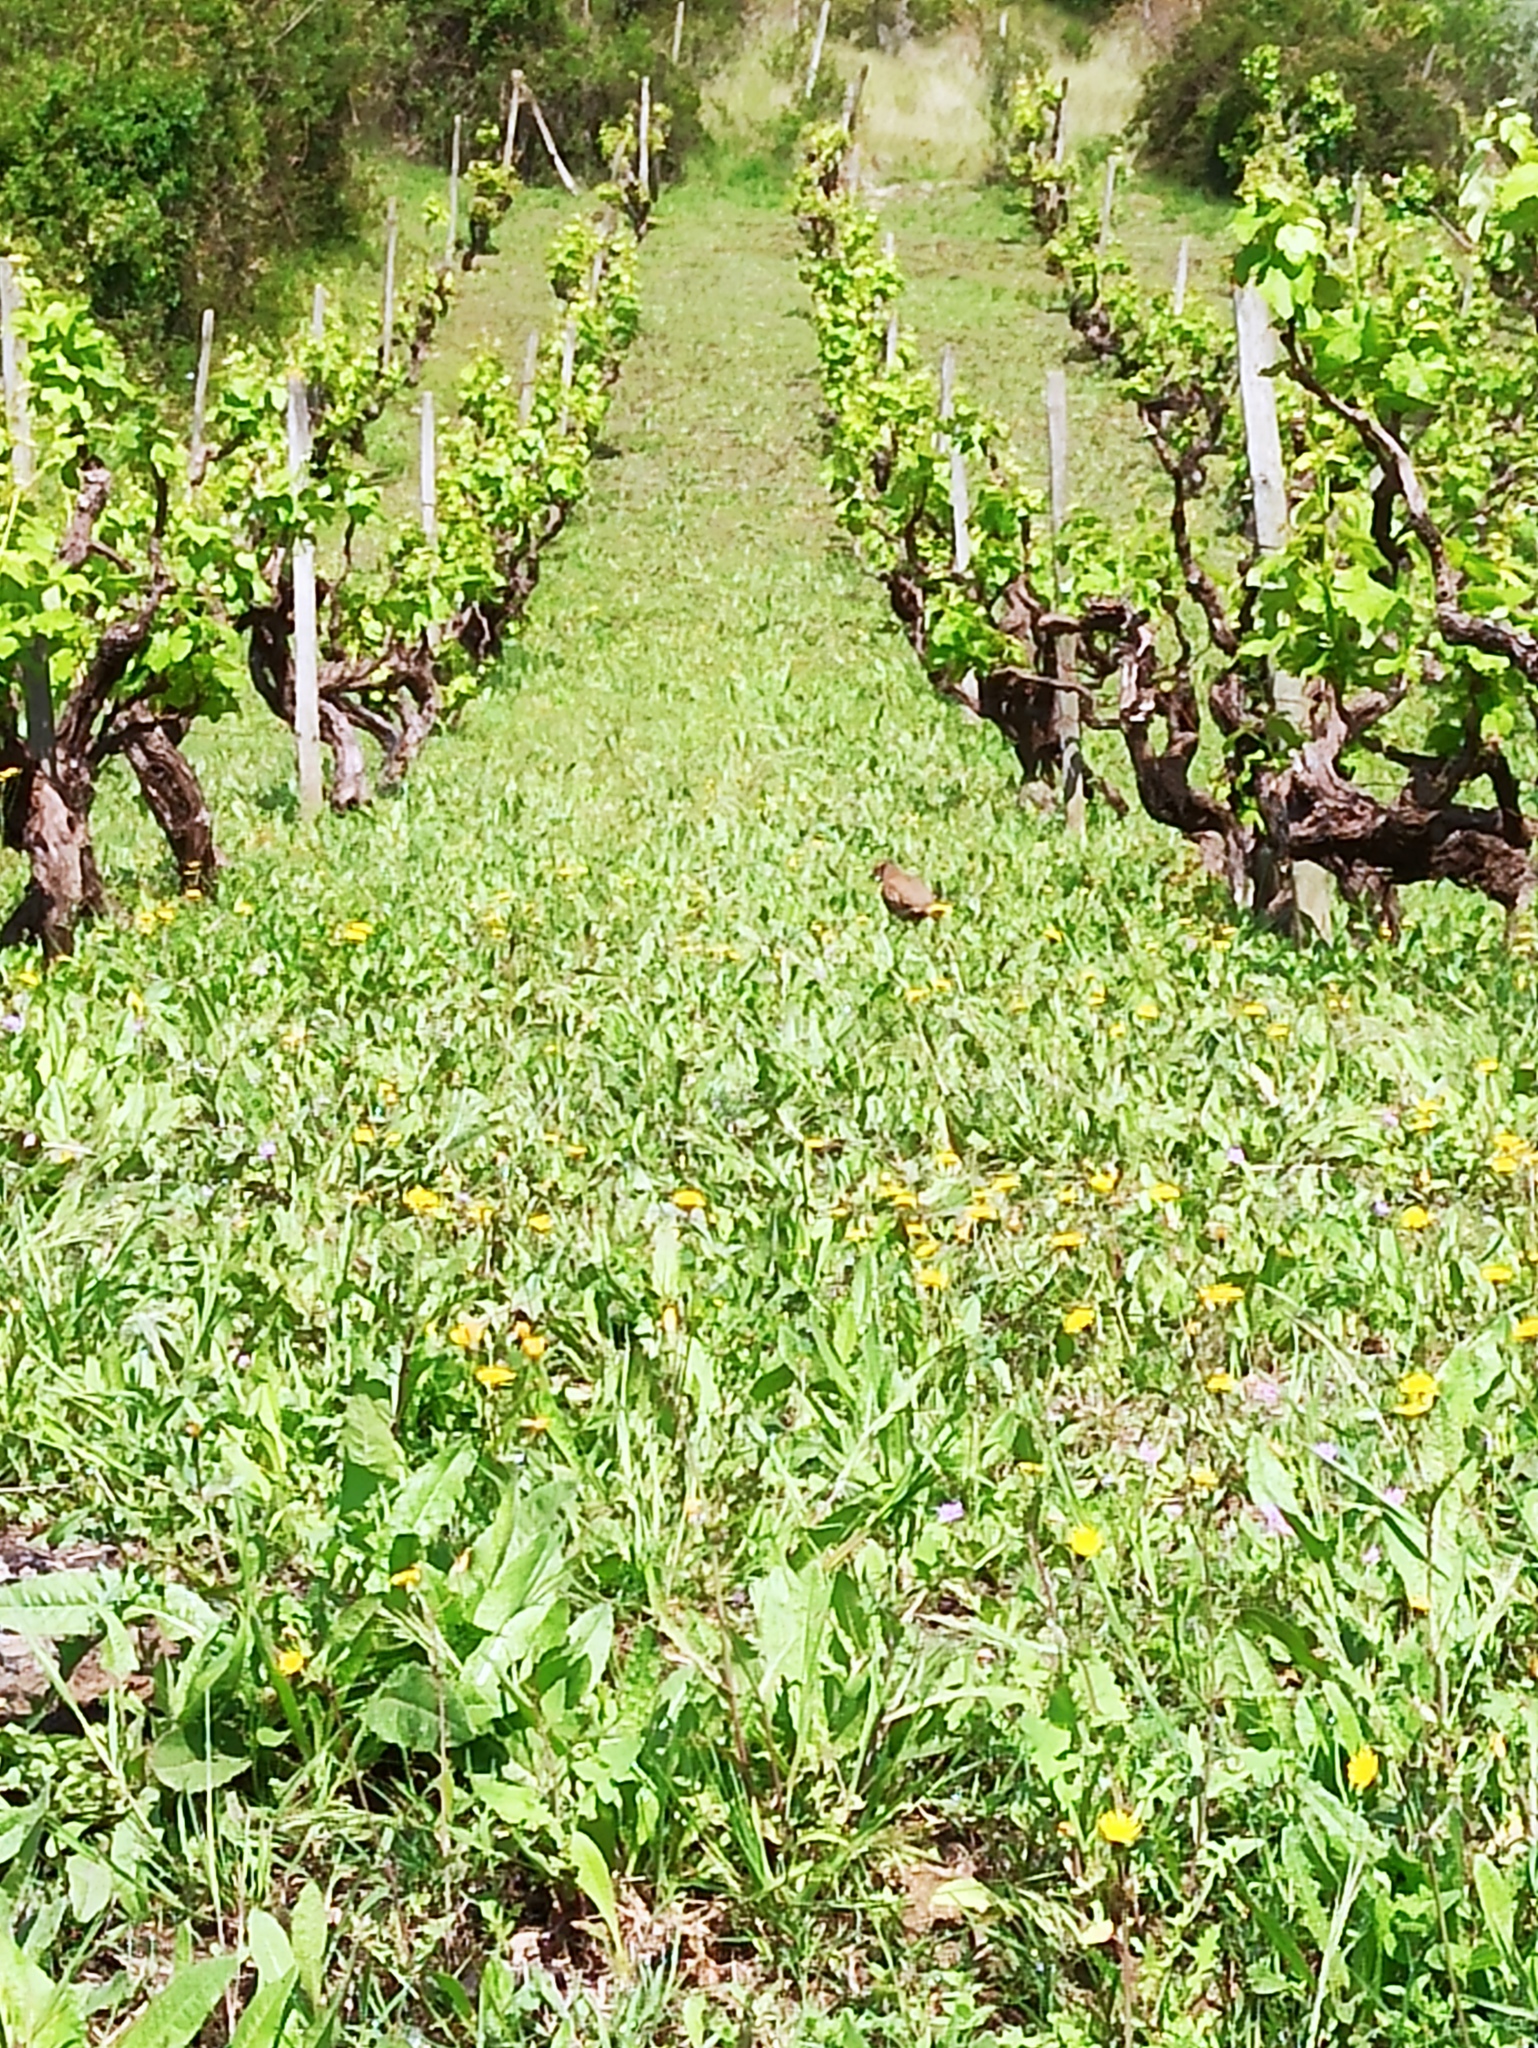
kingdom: Animalia
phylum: Chordata
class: Aves
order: Galliformes
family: Phasianidae
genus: Alectoris
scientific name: Alectoris rufa
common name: Red-legged partridge
